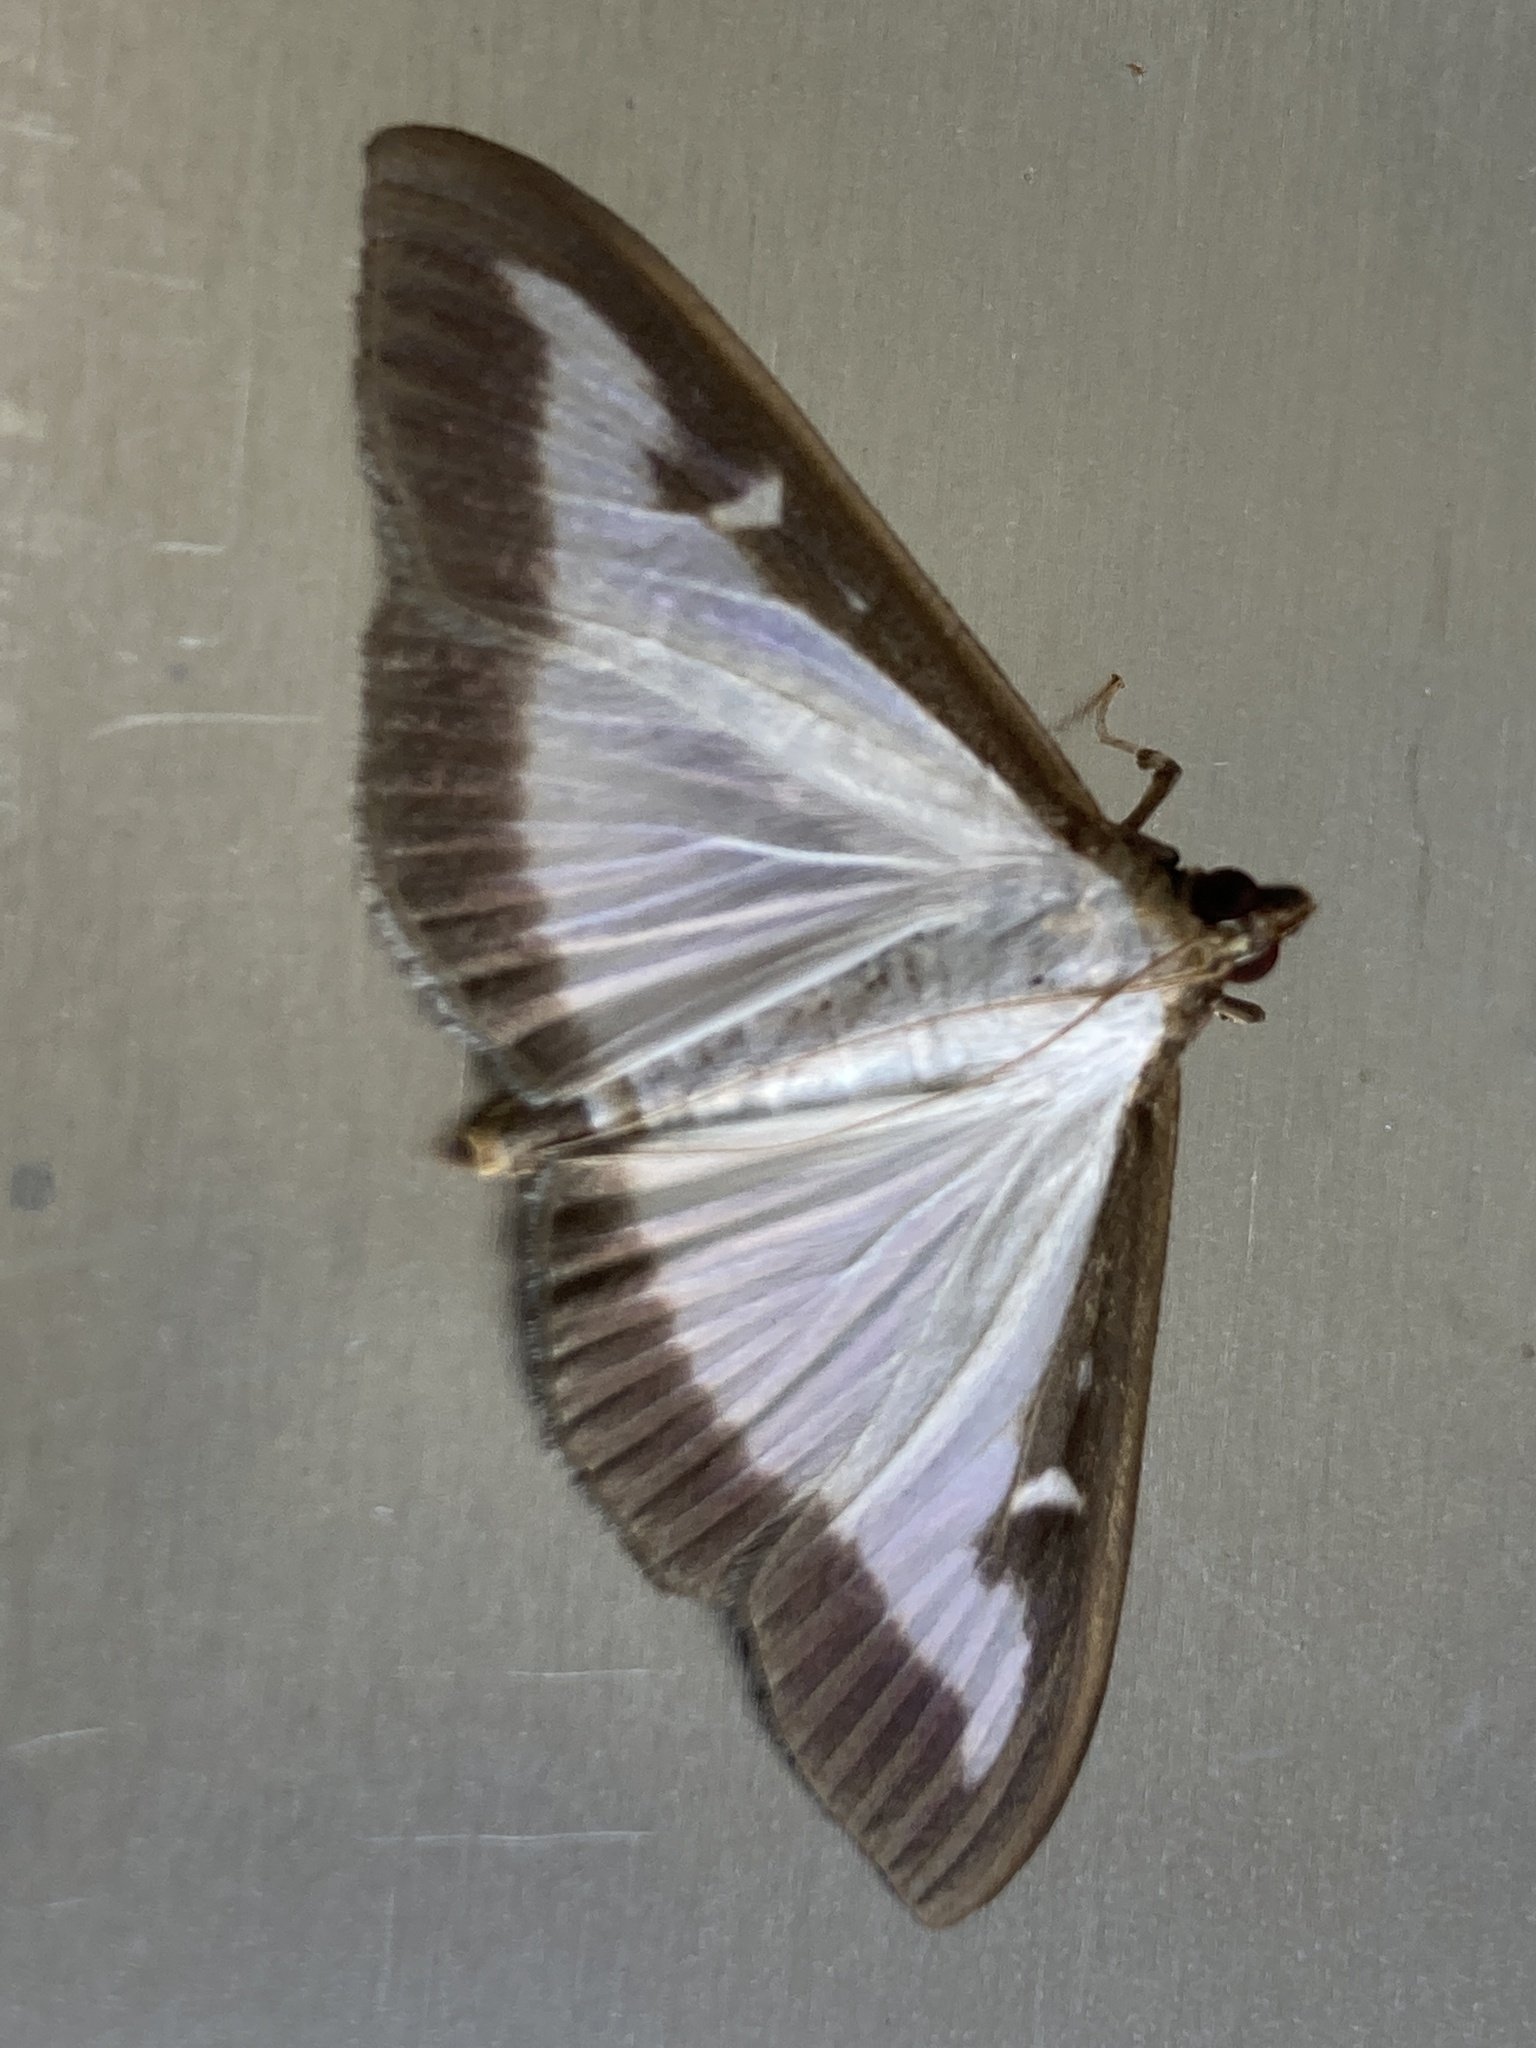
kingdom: Animalia
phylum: Arthropoda
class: Insecta
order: Lepidoptera
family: Crambidae
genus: Cydalima
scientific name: Cydalima perspectalis
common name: Box tree moth
